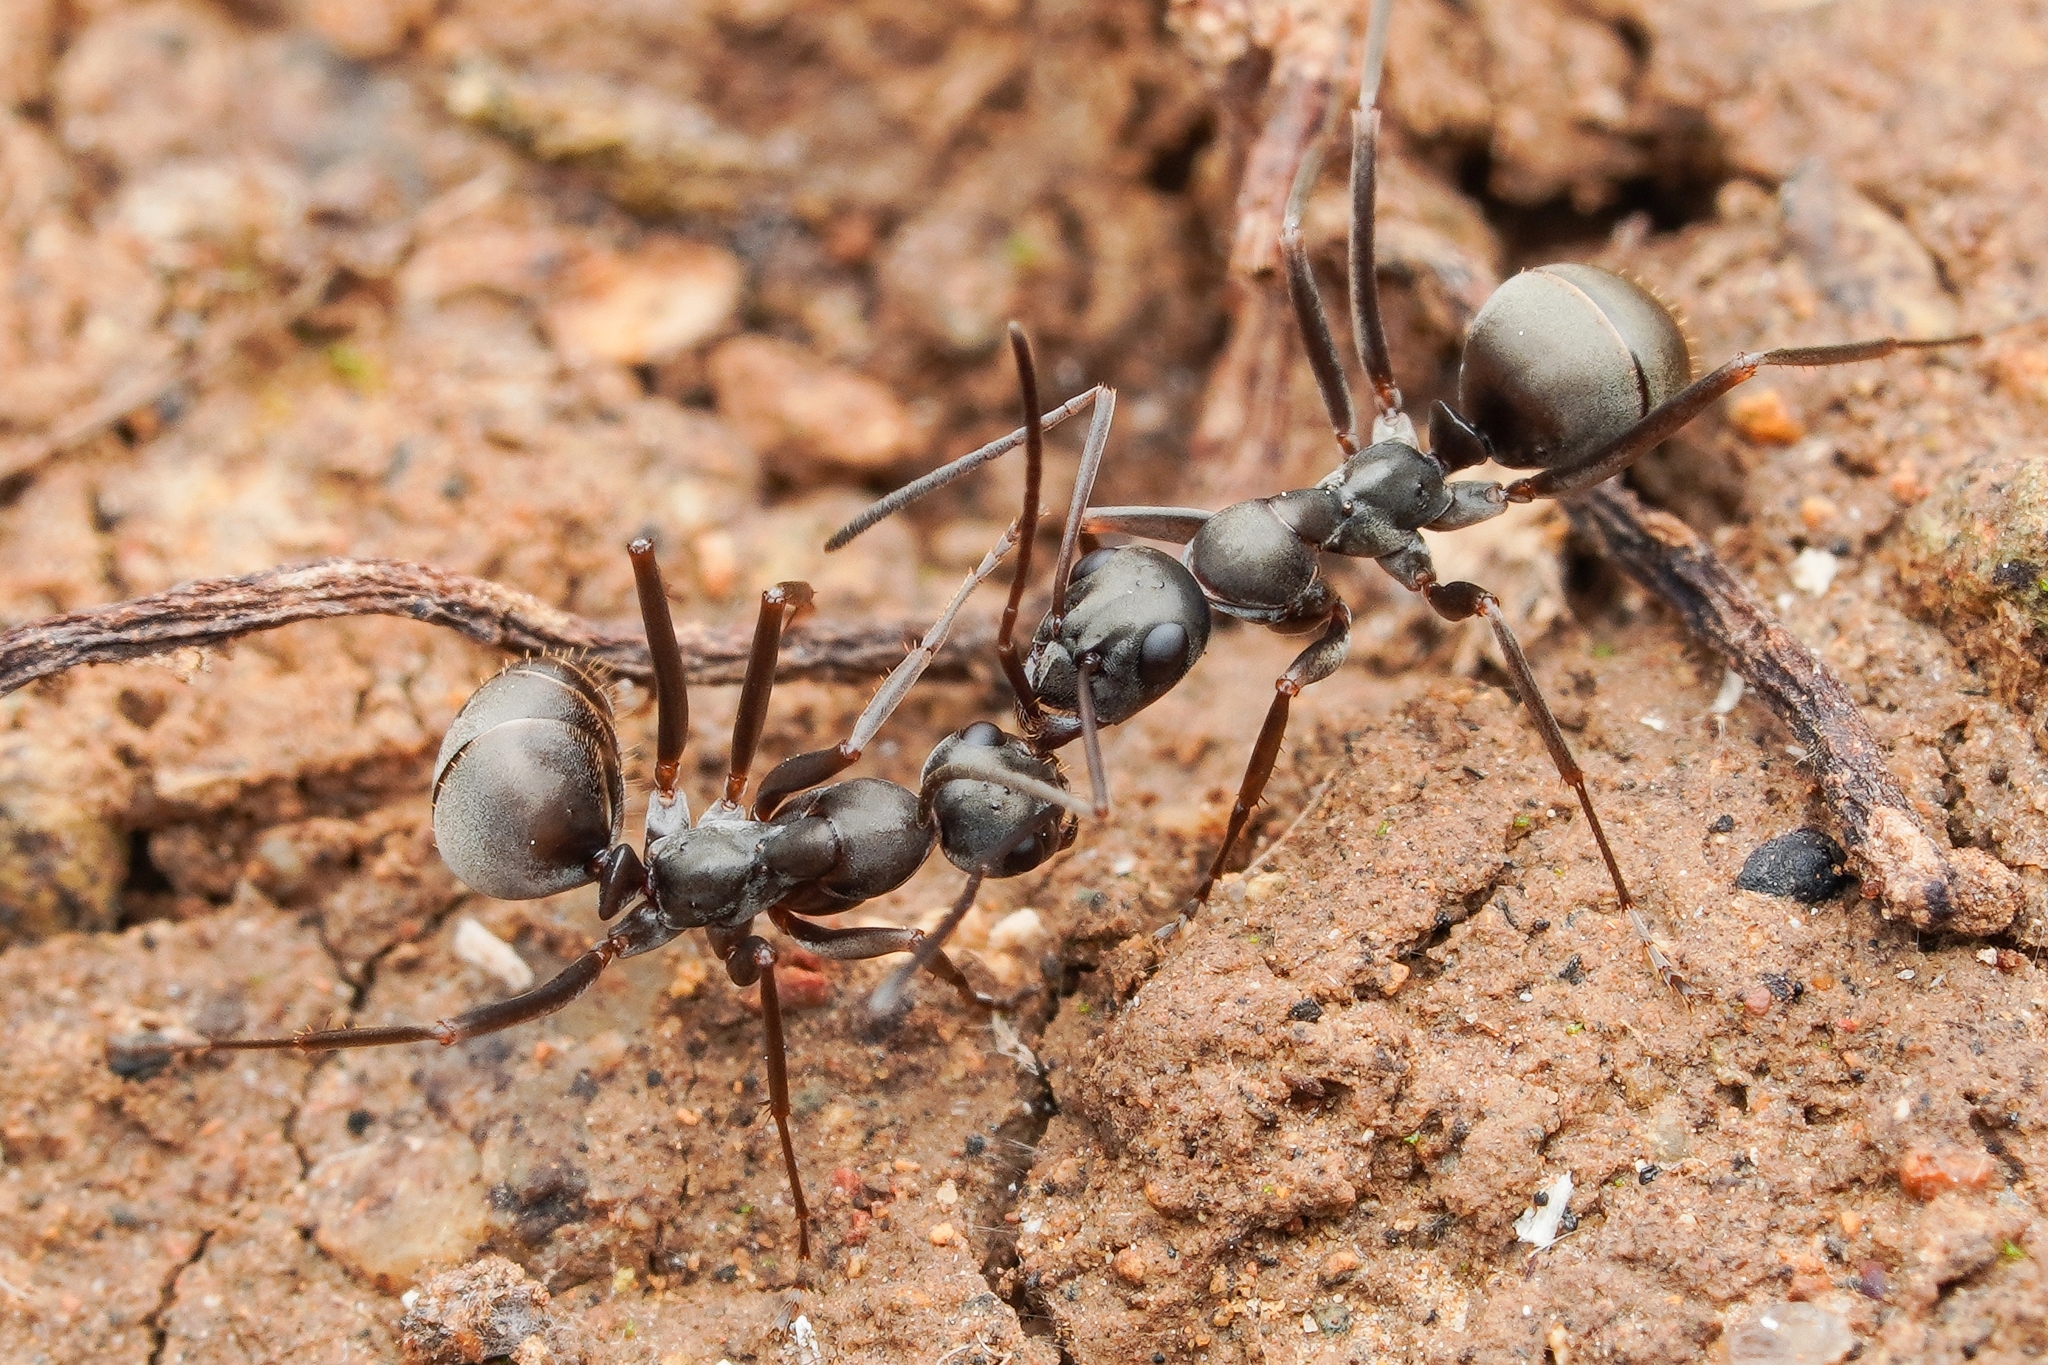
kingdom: Animalia
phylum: Arthropoda
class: Insecta
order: Hymenoptera
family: Formicidae
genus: Formica
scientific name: Formica hayashi
